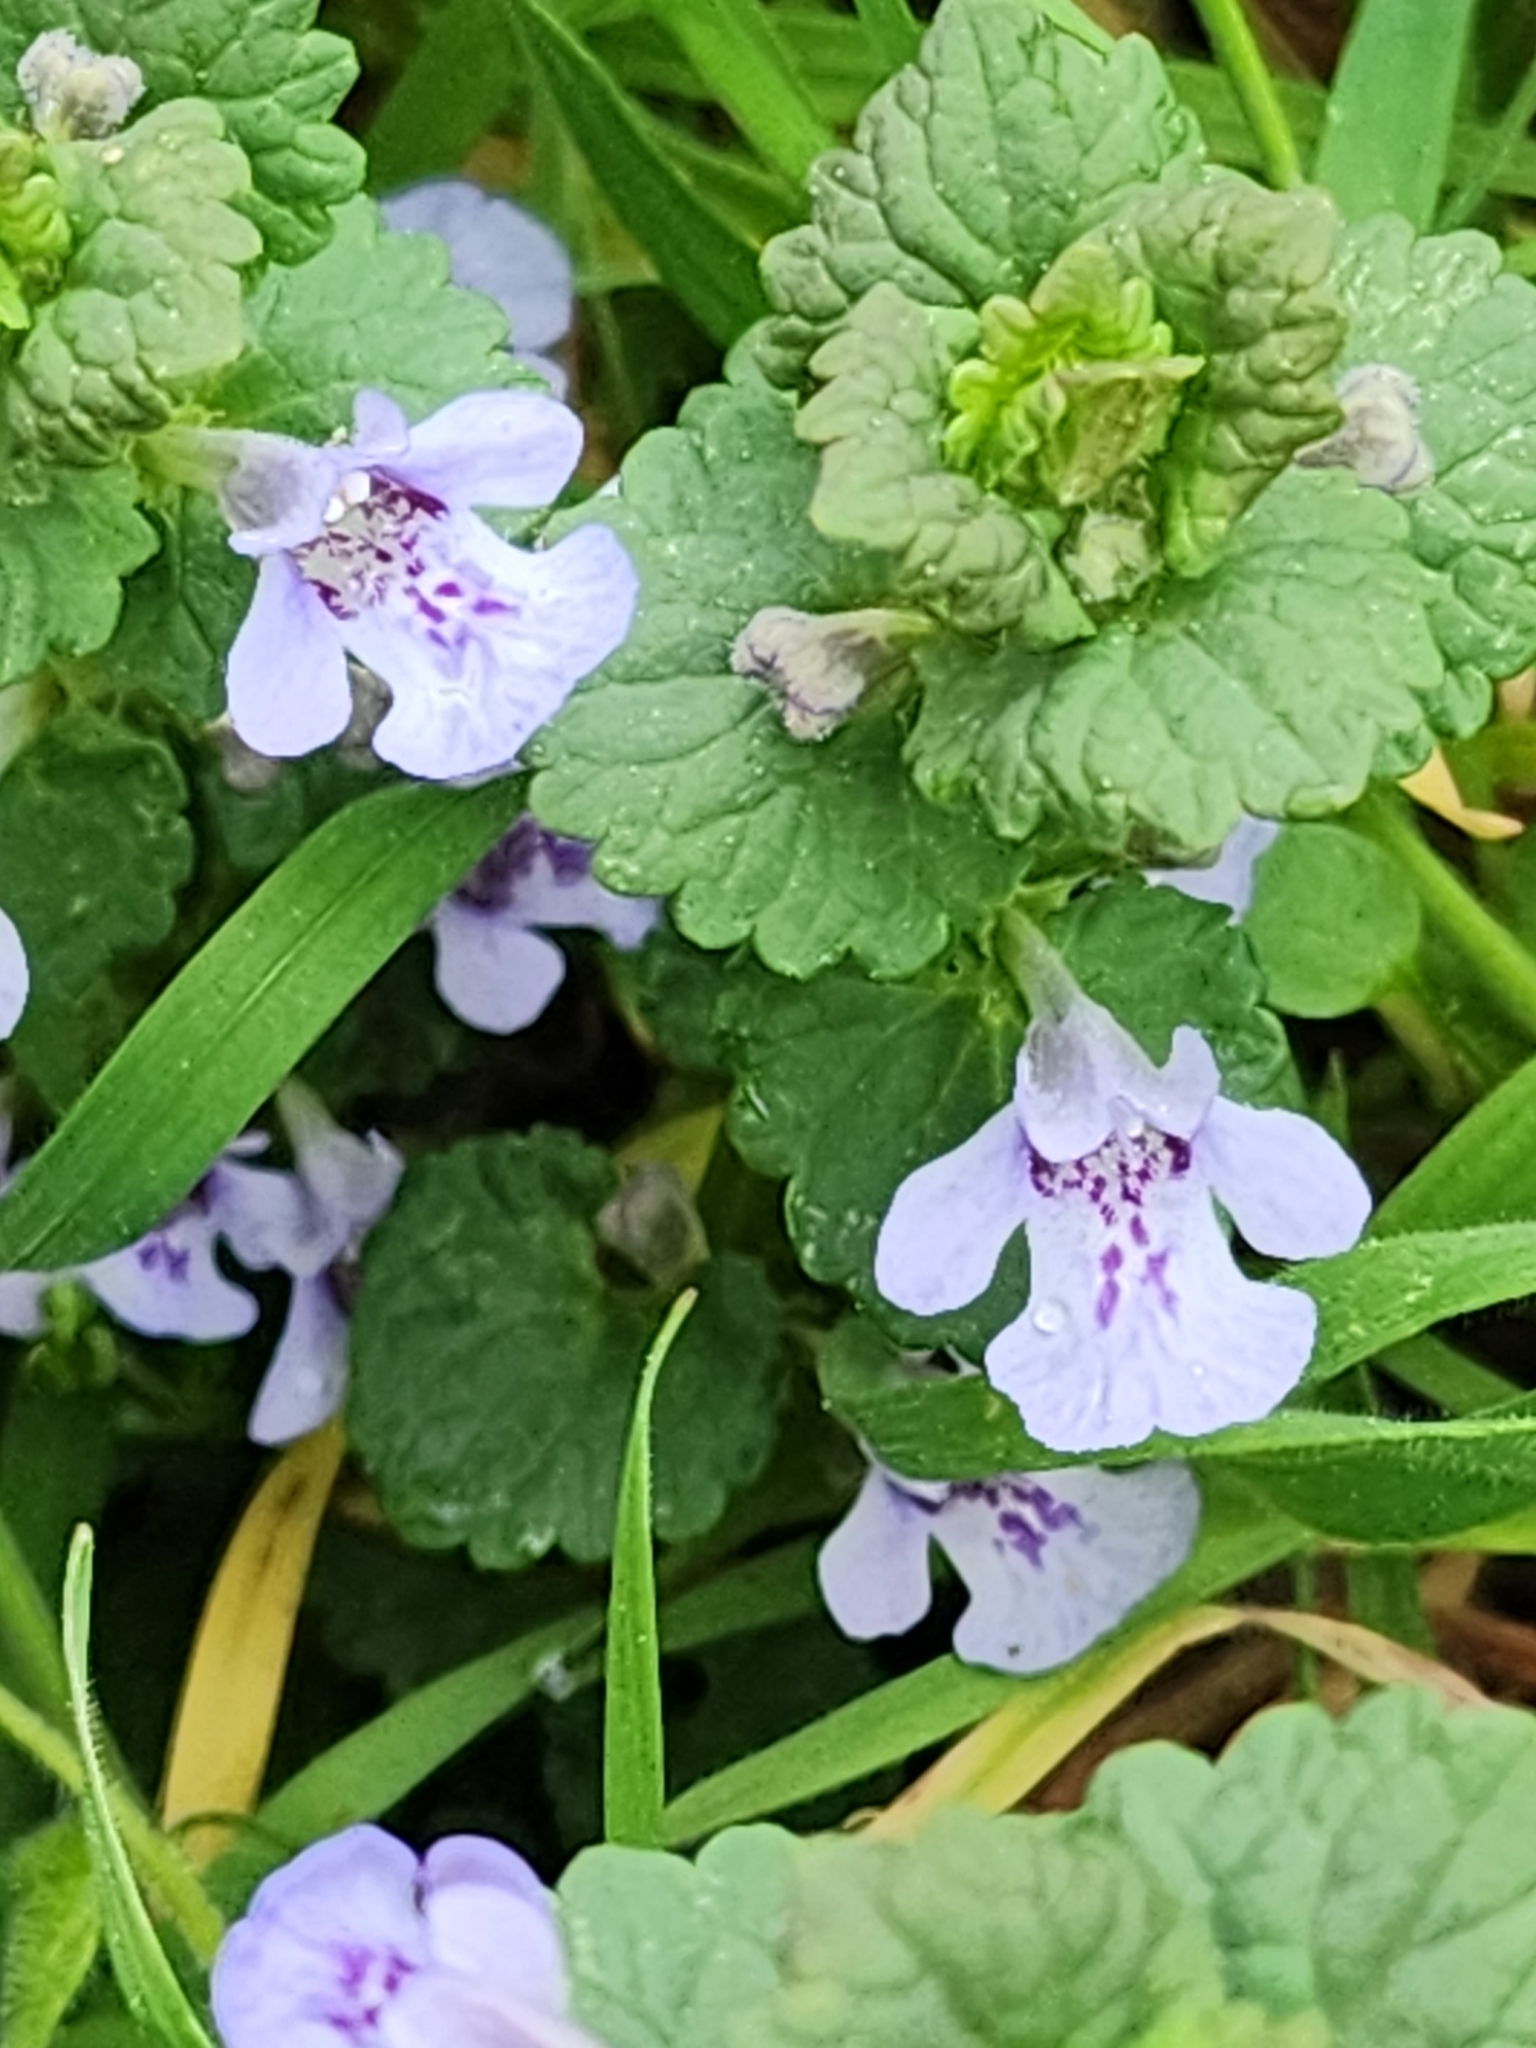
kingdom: Plantae
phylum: Tracheophyta
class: Magnoliopsida
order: Lamiales
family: Lamiaceae
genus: Glechoma
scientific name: Glechoma hederacea
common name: Ground ivy
